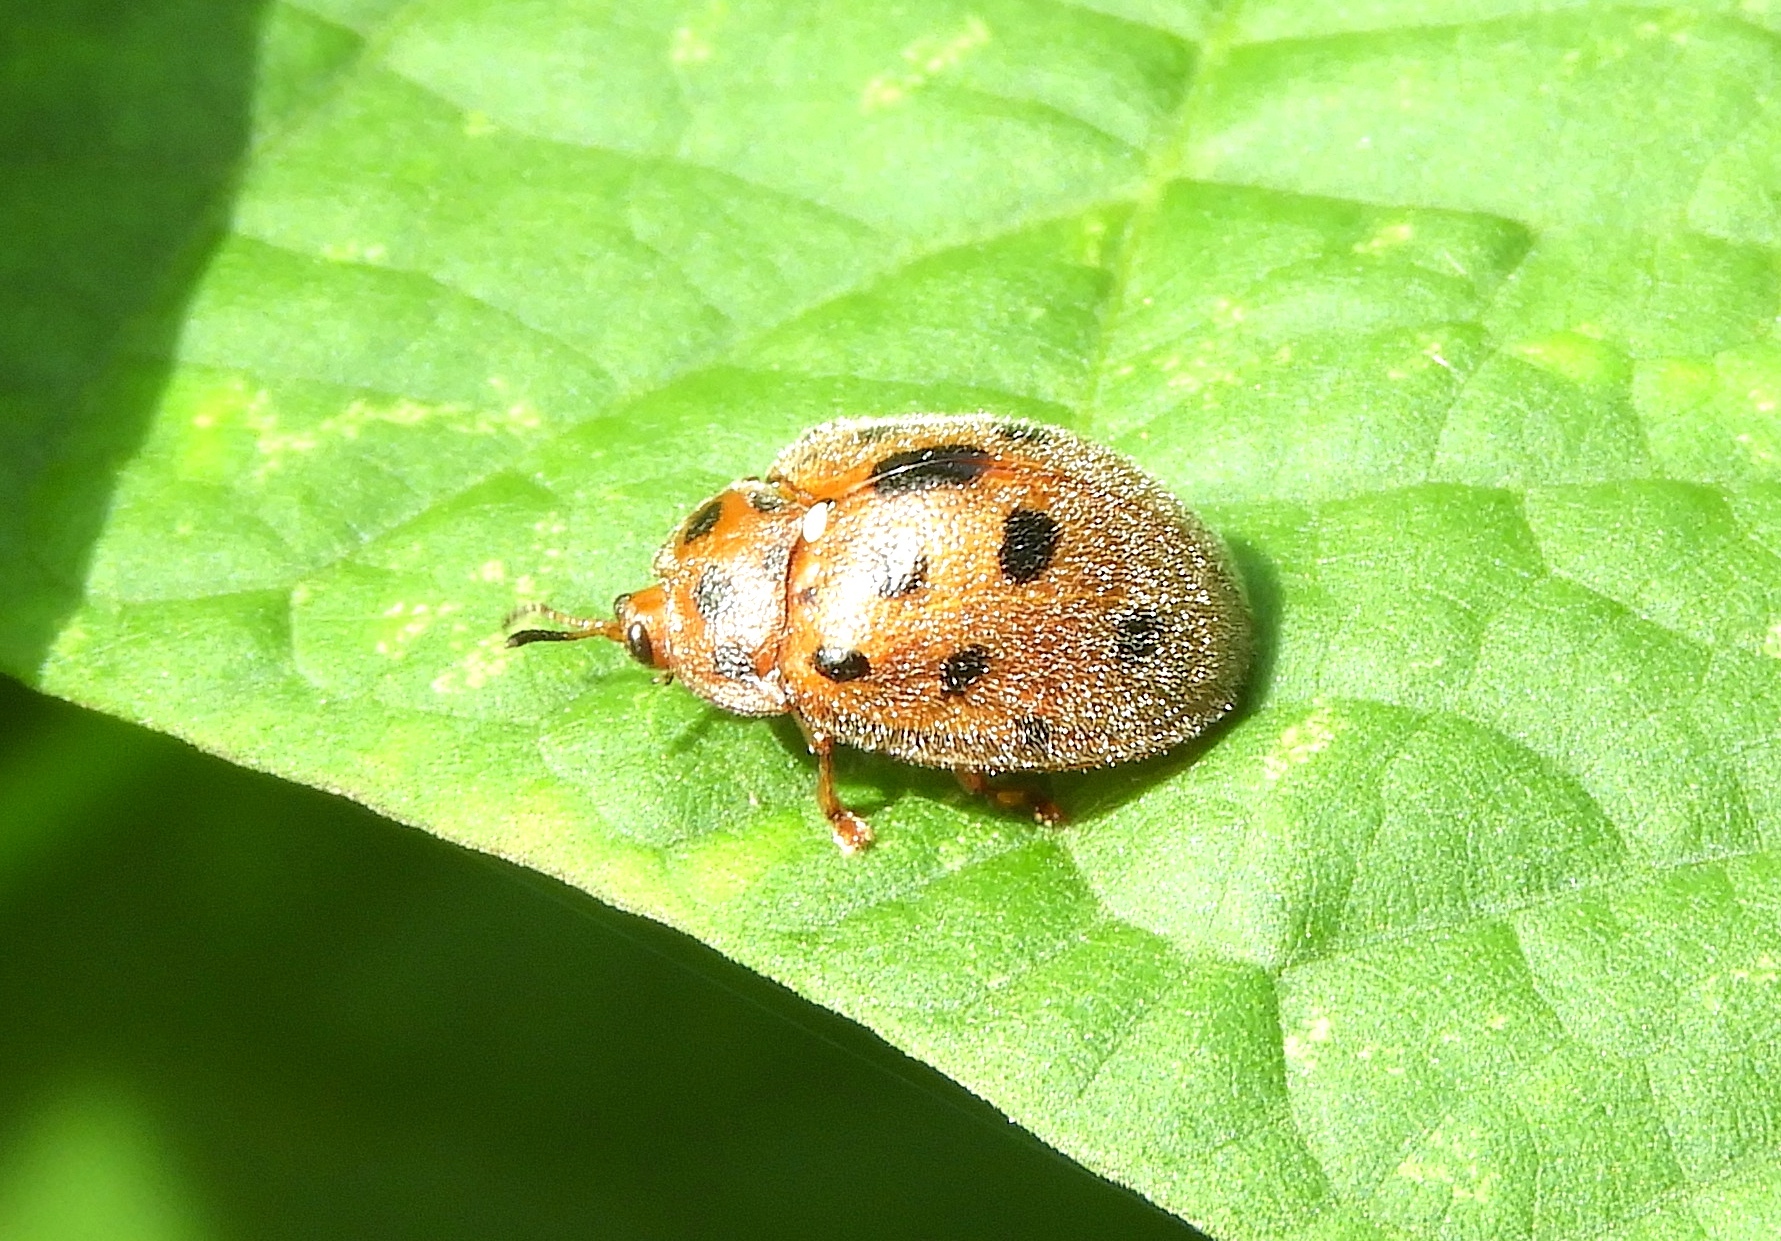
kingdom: Animalia
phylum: Arthropoda
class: Insecta
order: Coleoptera
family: Chrysomelidae
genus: Chelymorpha
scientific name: Chelymorpha
